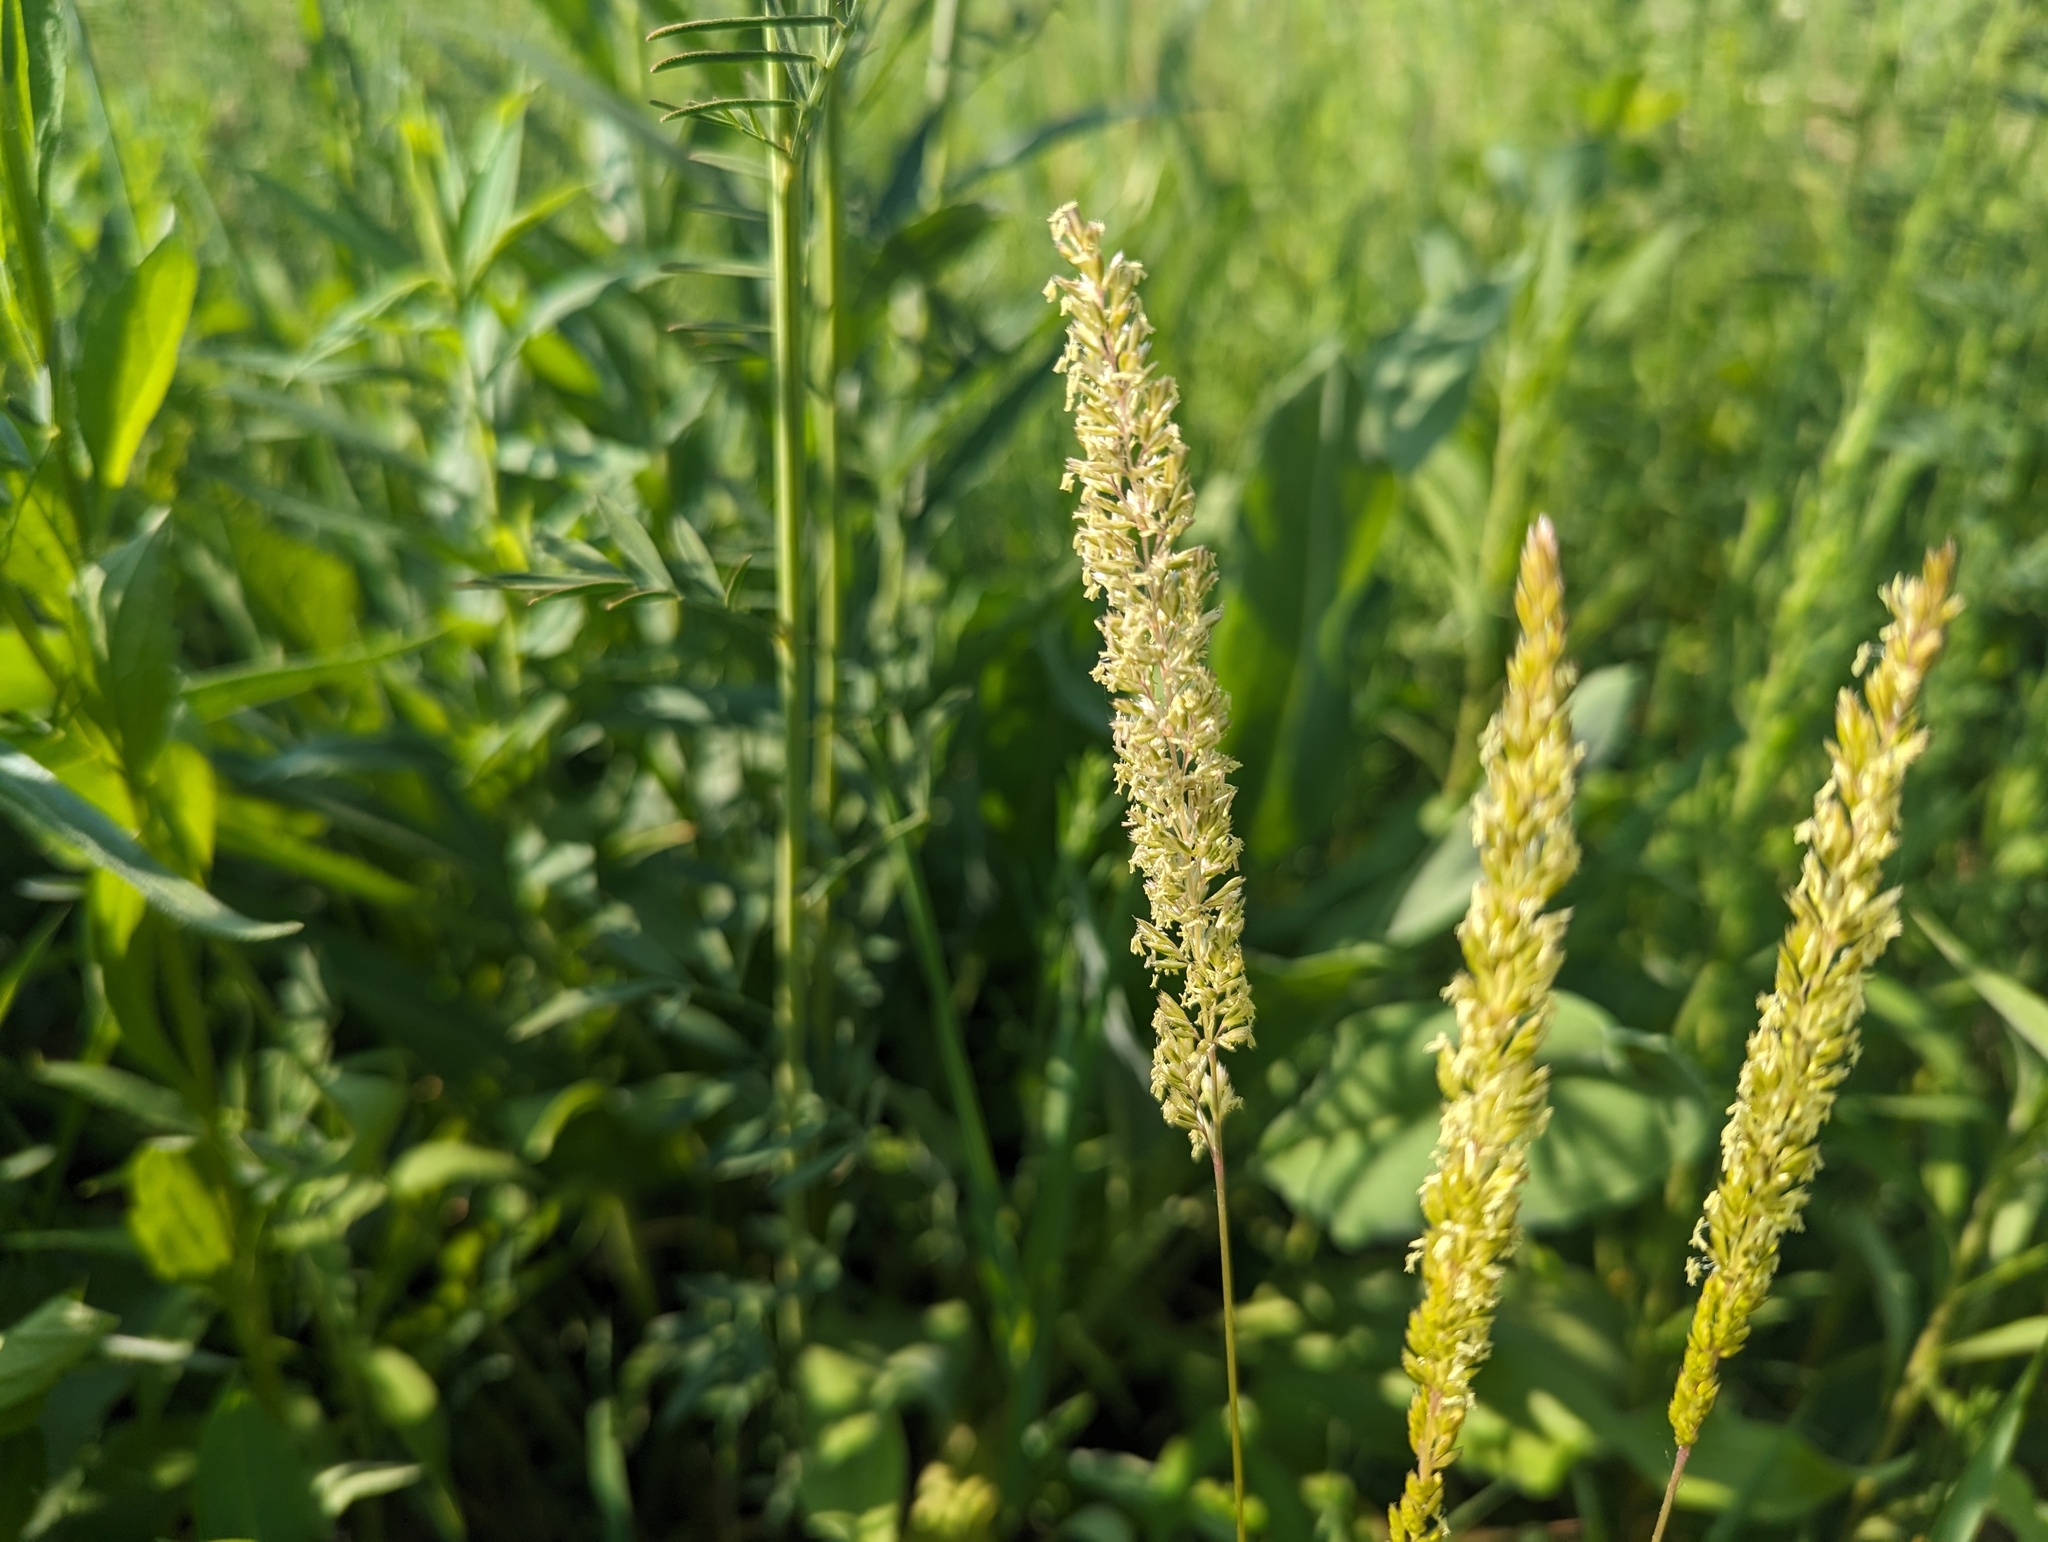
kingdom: Plantae
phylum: Tracheophyta
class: Liliopsida
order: Poales
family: Poaceae
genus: Koeleria
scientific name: Koeleria macrantha
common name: Crested hair-grass
